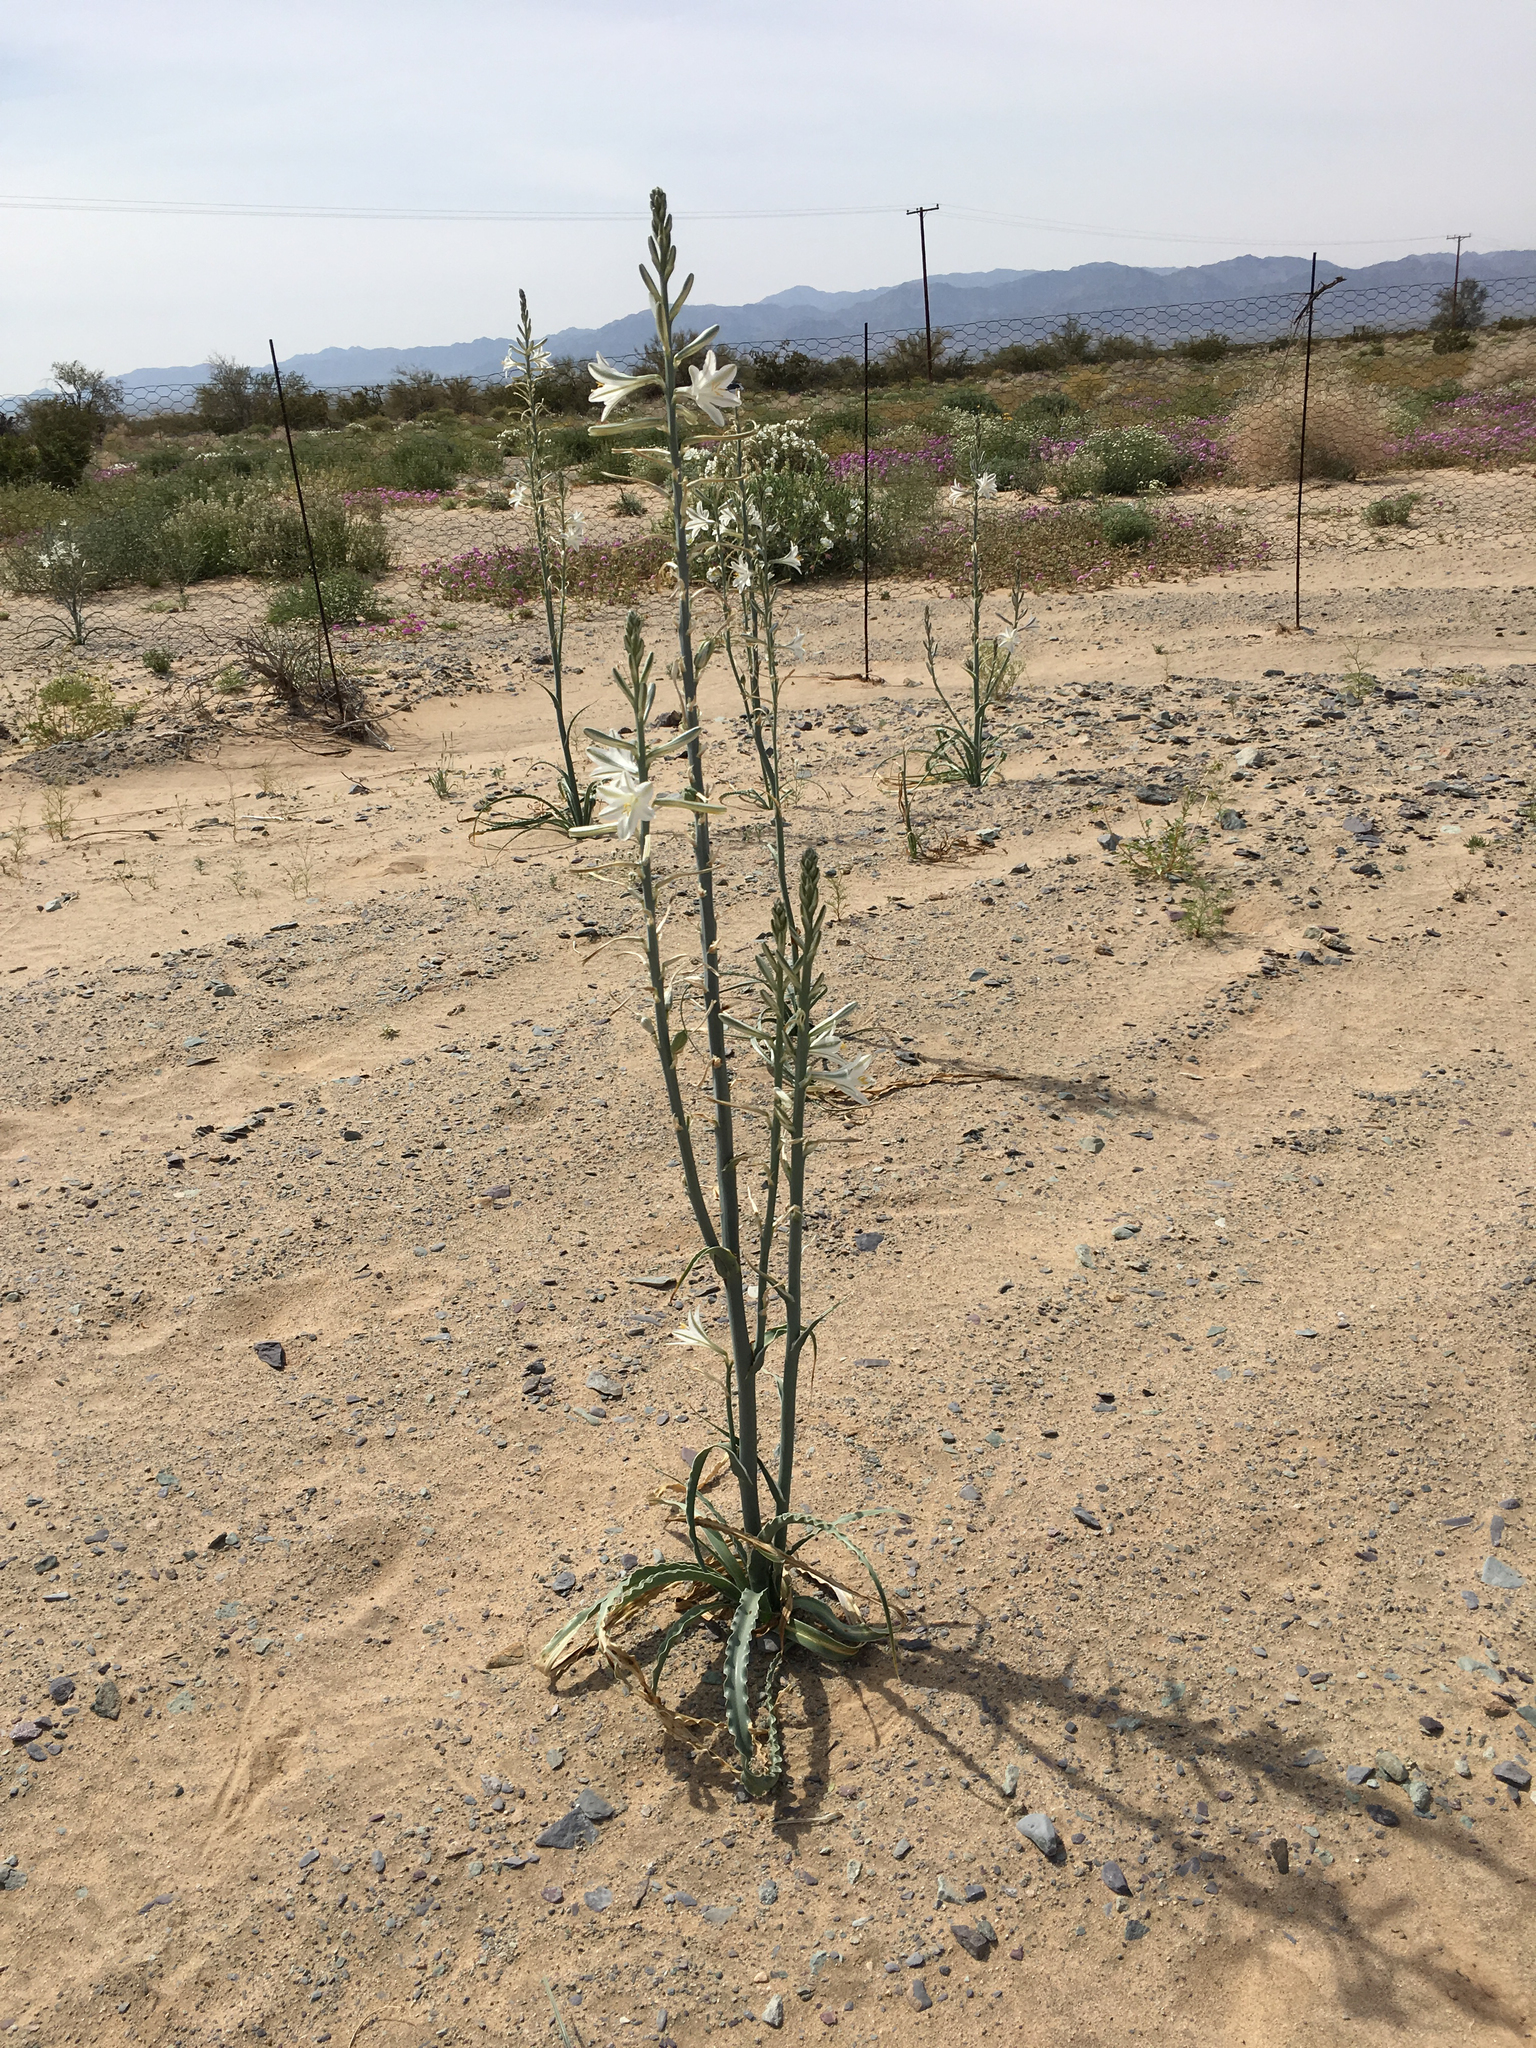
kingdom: Plantae
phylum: Tracheophyta
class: Liliopsida
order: Asparagales
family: Asparagaceae
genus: Hesperocallis
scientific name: Hesperocallis undulata
